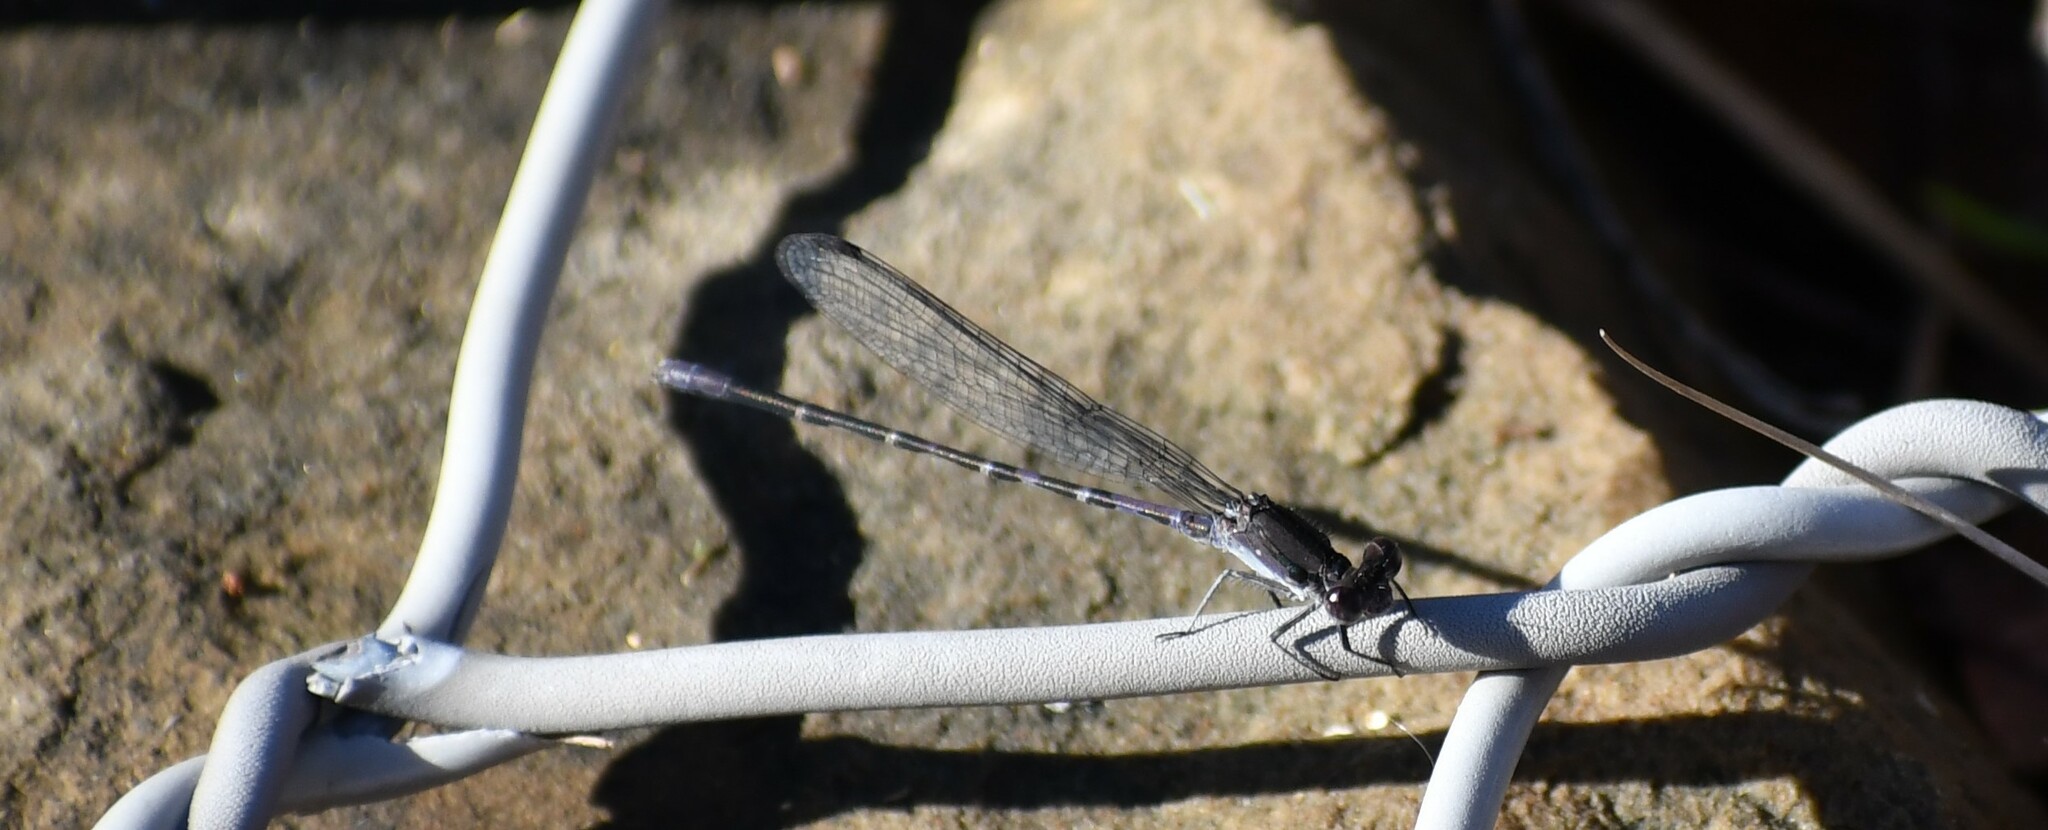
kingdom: Animalia
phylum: Arthropoda
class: Insecta
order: Odonata
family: Coenagrionidae
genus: Argia
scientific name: Argia immunda
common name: Kiowa dancer
